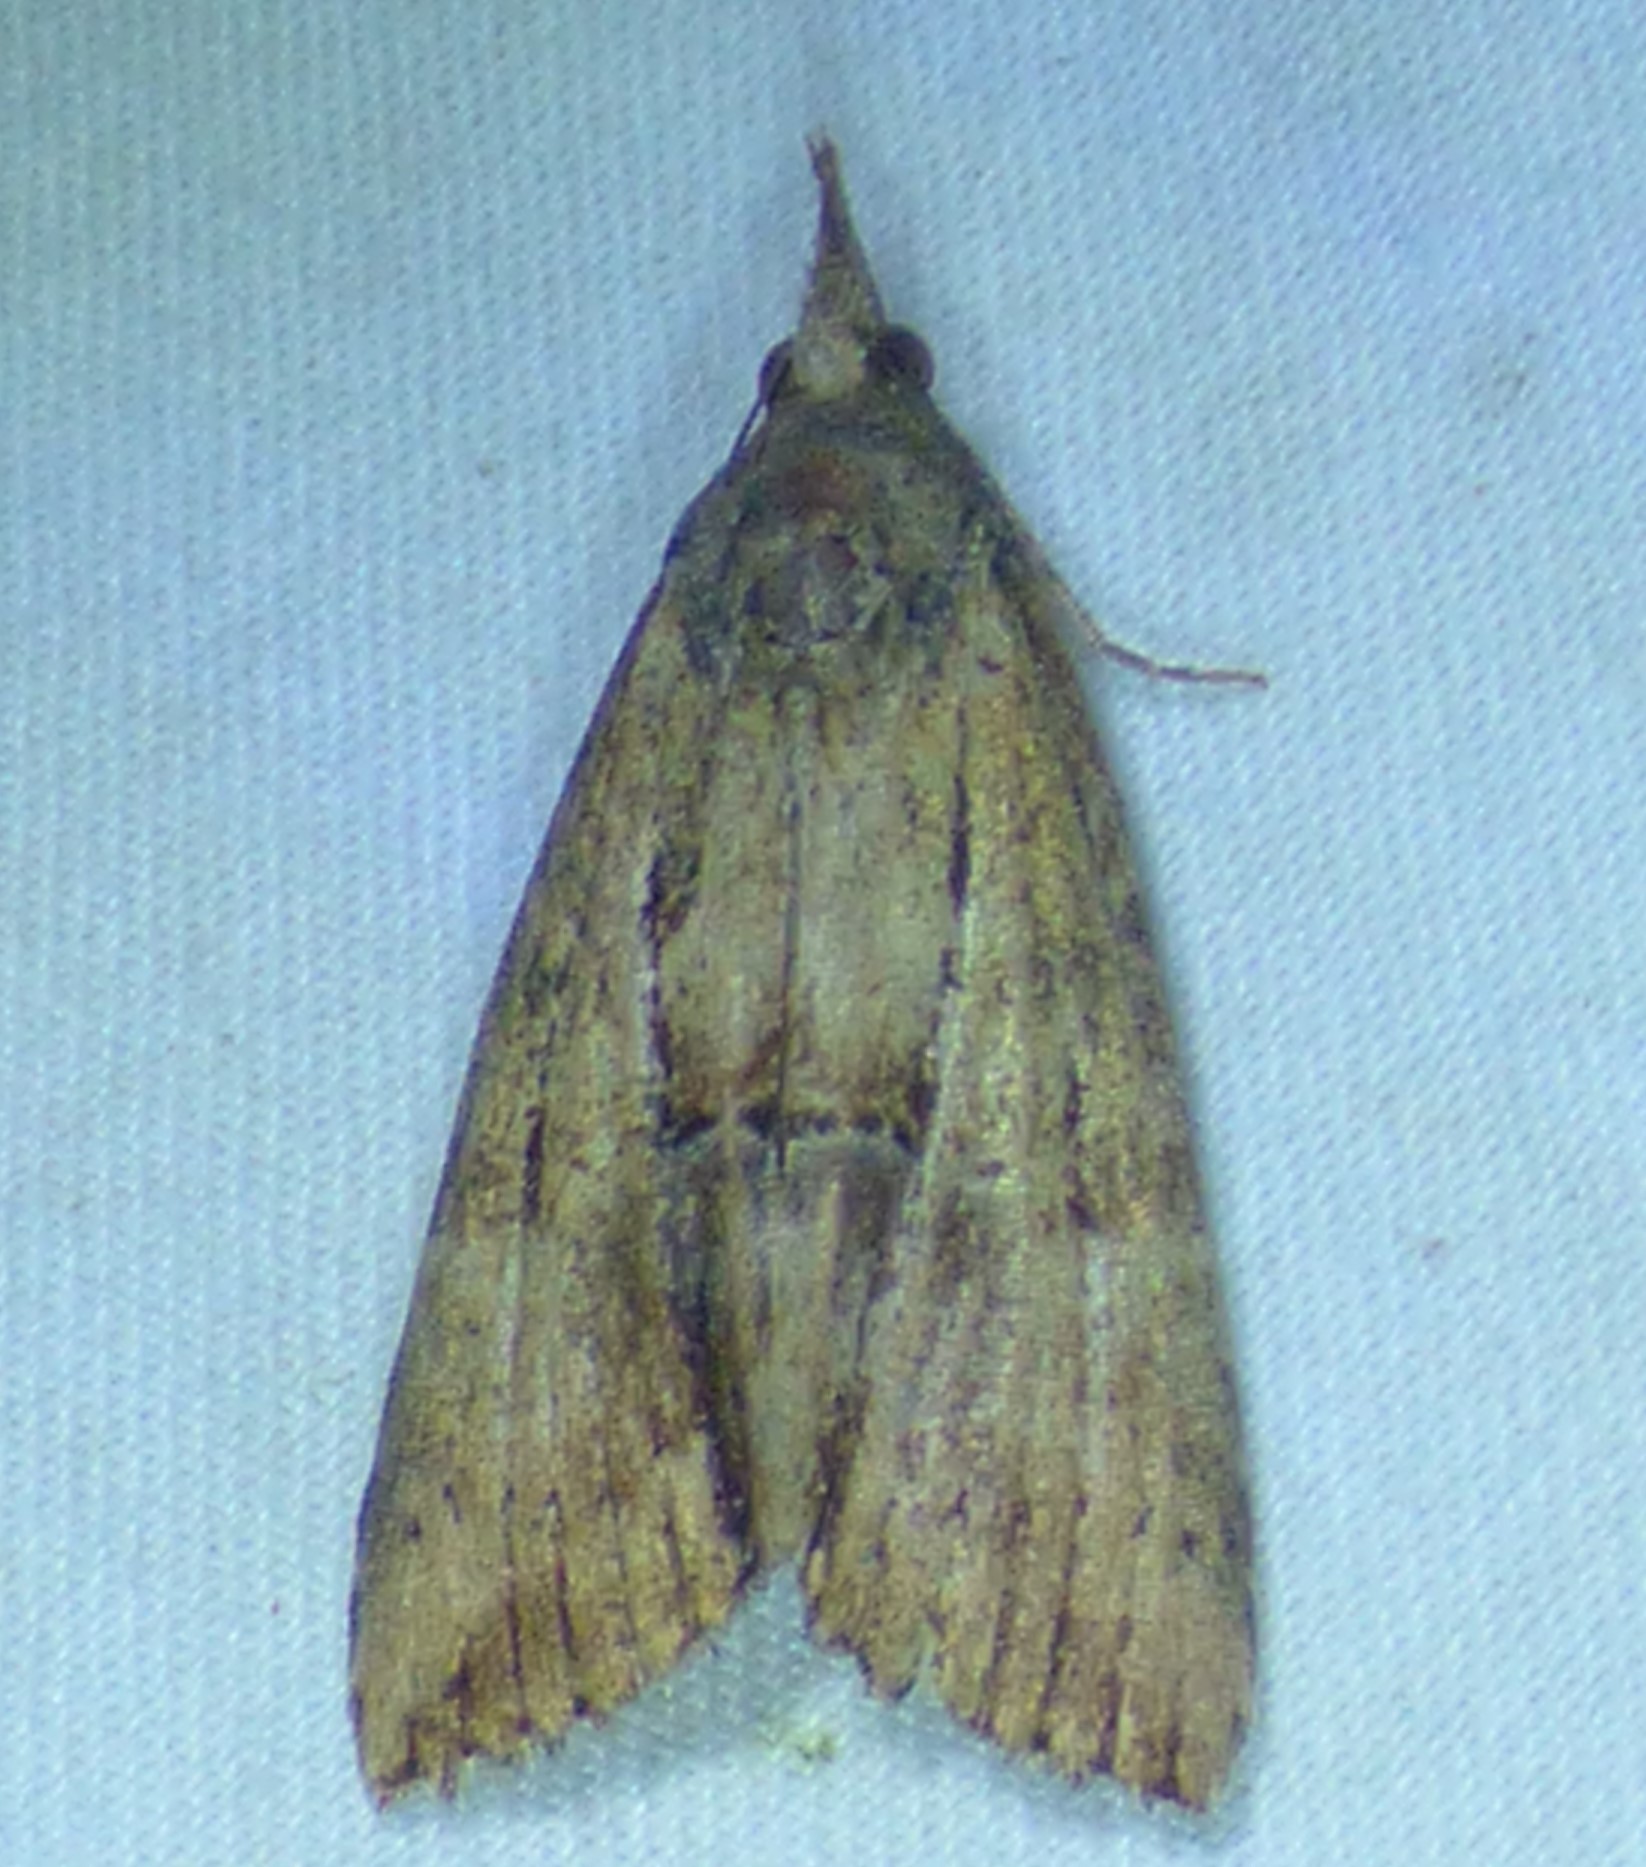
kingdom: Animalia
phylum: Arthropoda
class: Insecta
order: Lepidoptera
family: Erebidae
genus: Hypena
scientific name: Hypena scabra
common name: Green cloverworm
